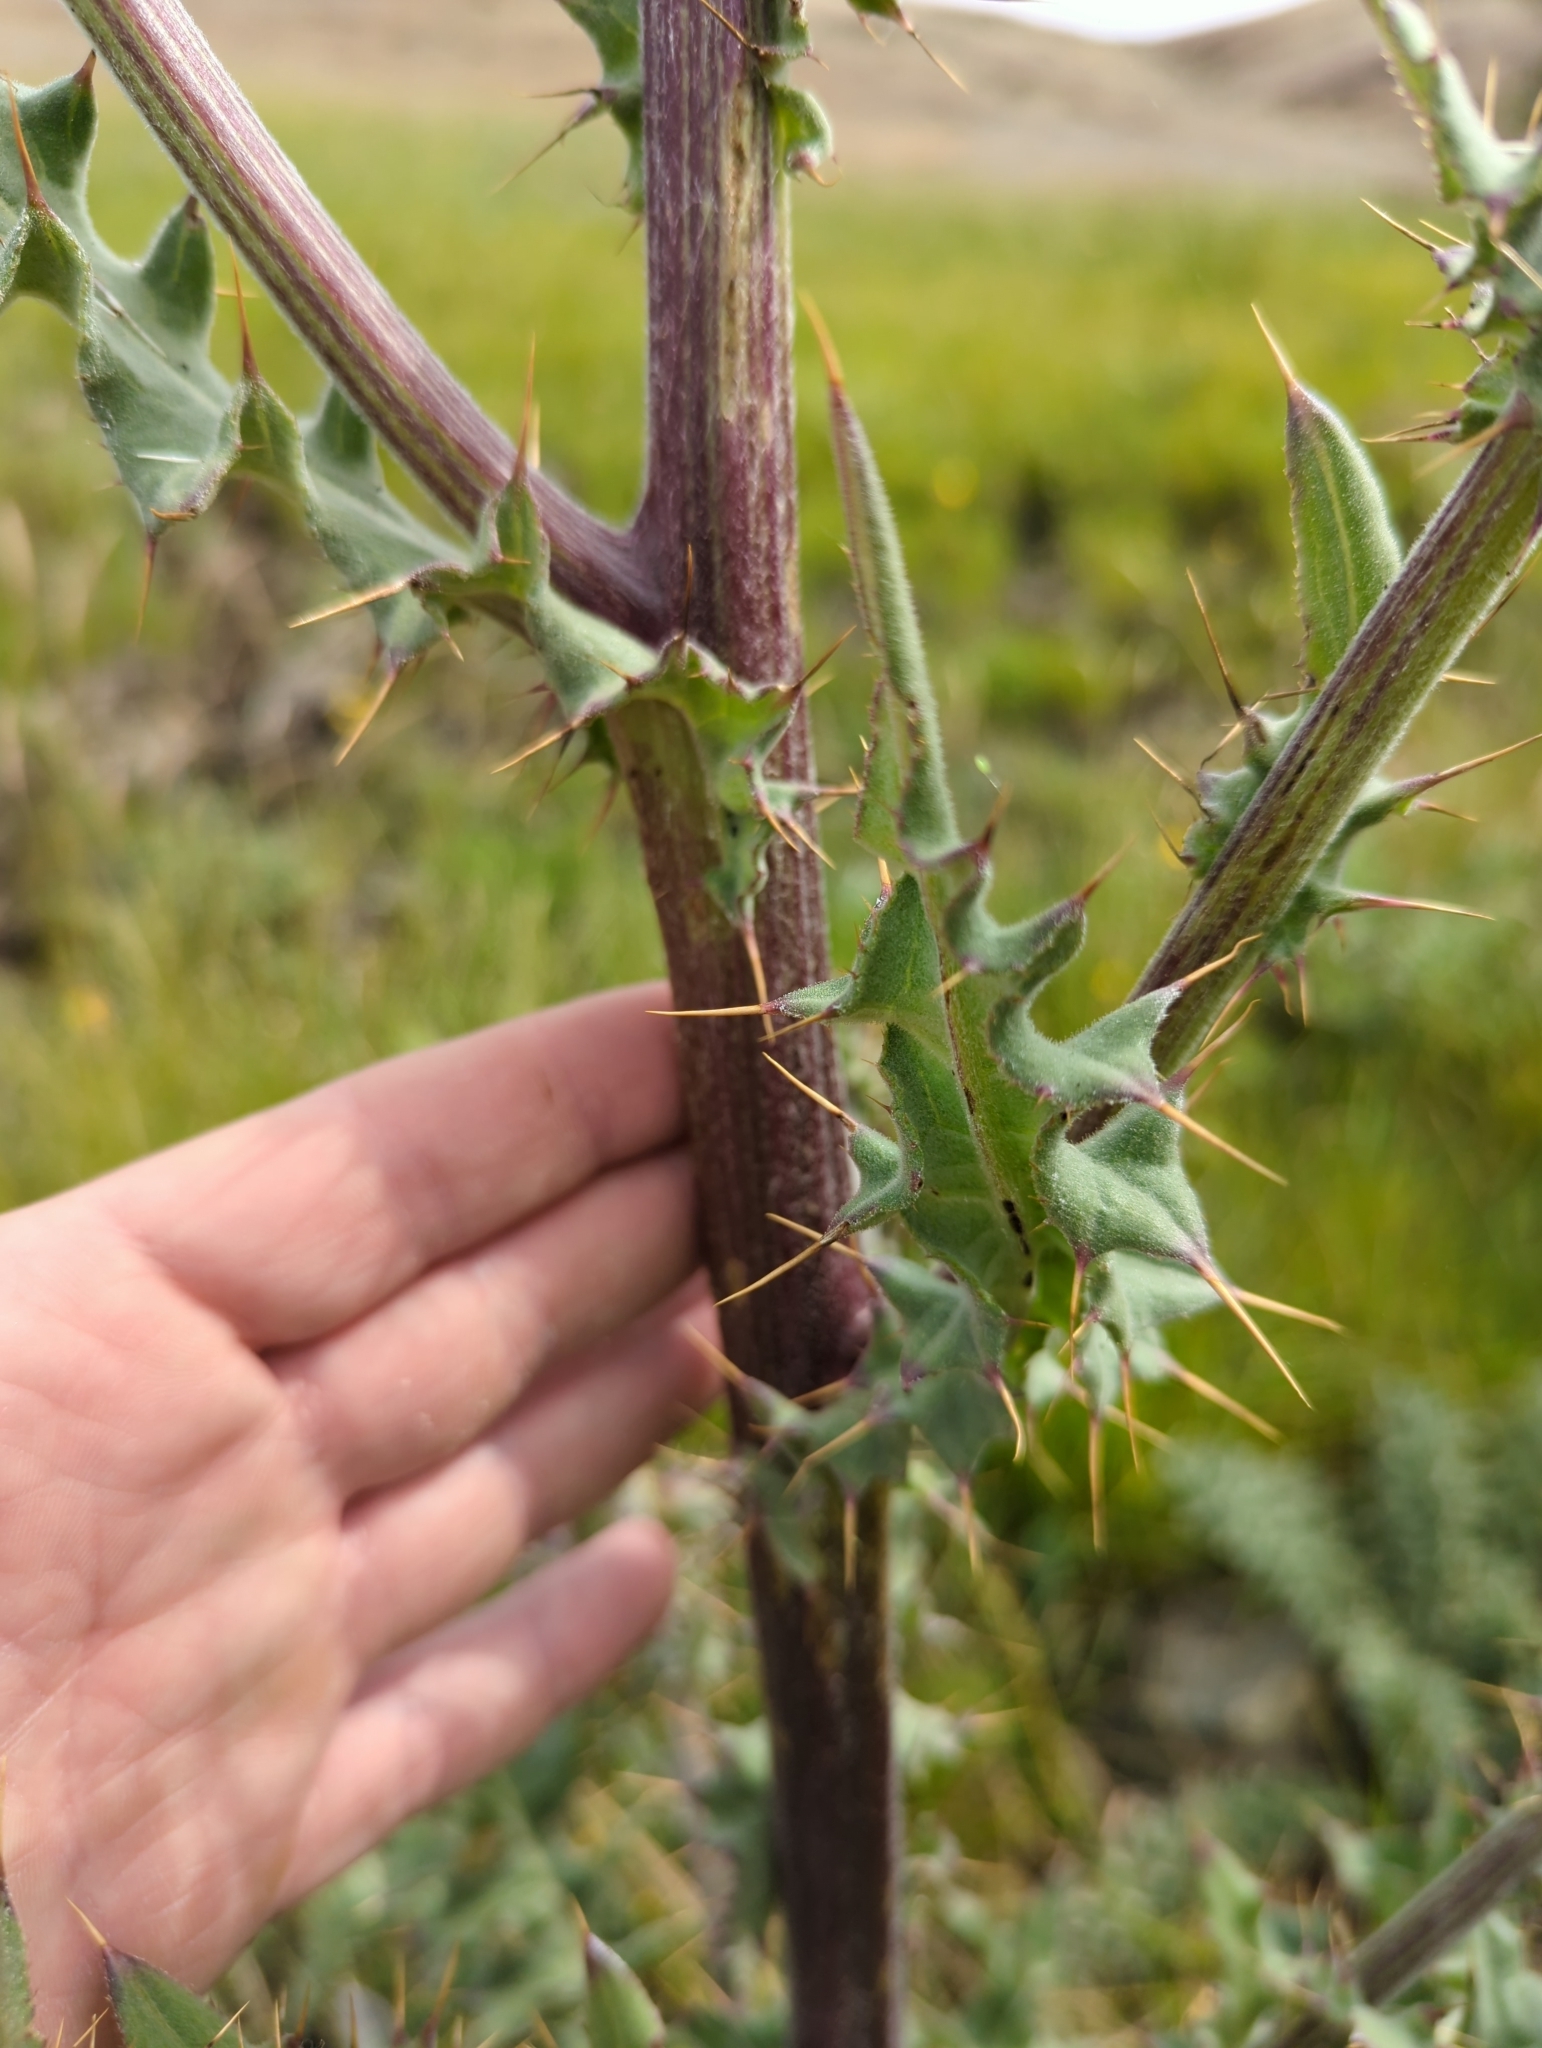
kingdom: Plantae
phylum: Tracheophyta
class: Magnoliopsida
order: Asterales
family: Asteraceae
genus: Cirsium
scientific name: Cirsium fontinale
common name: Fountain thistle
